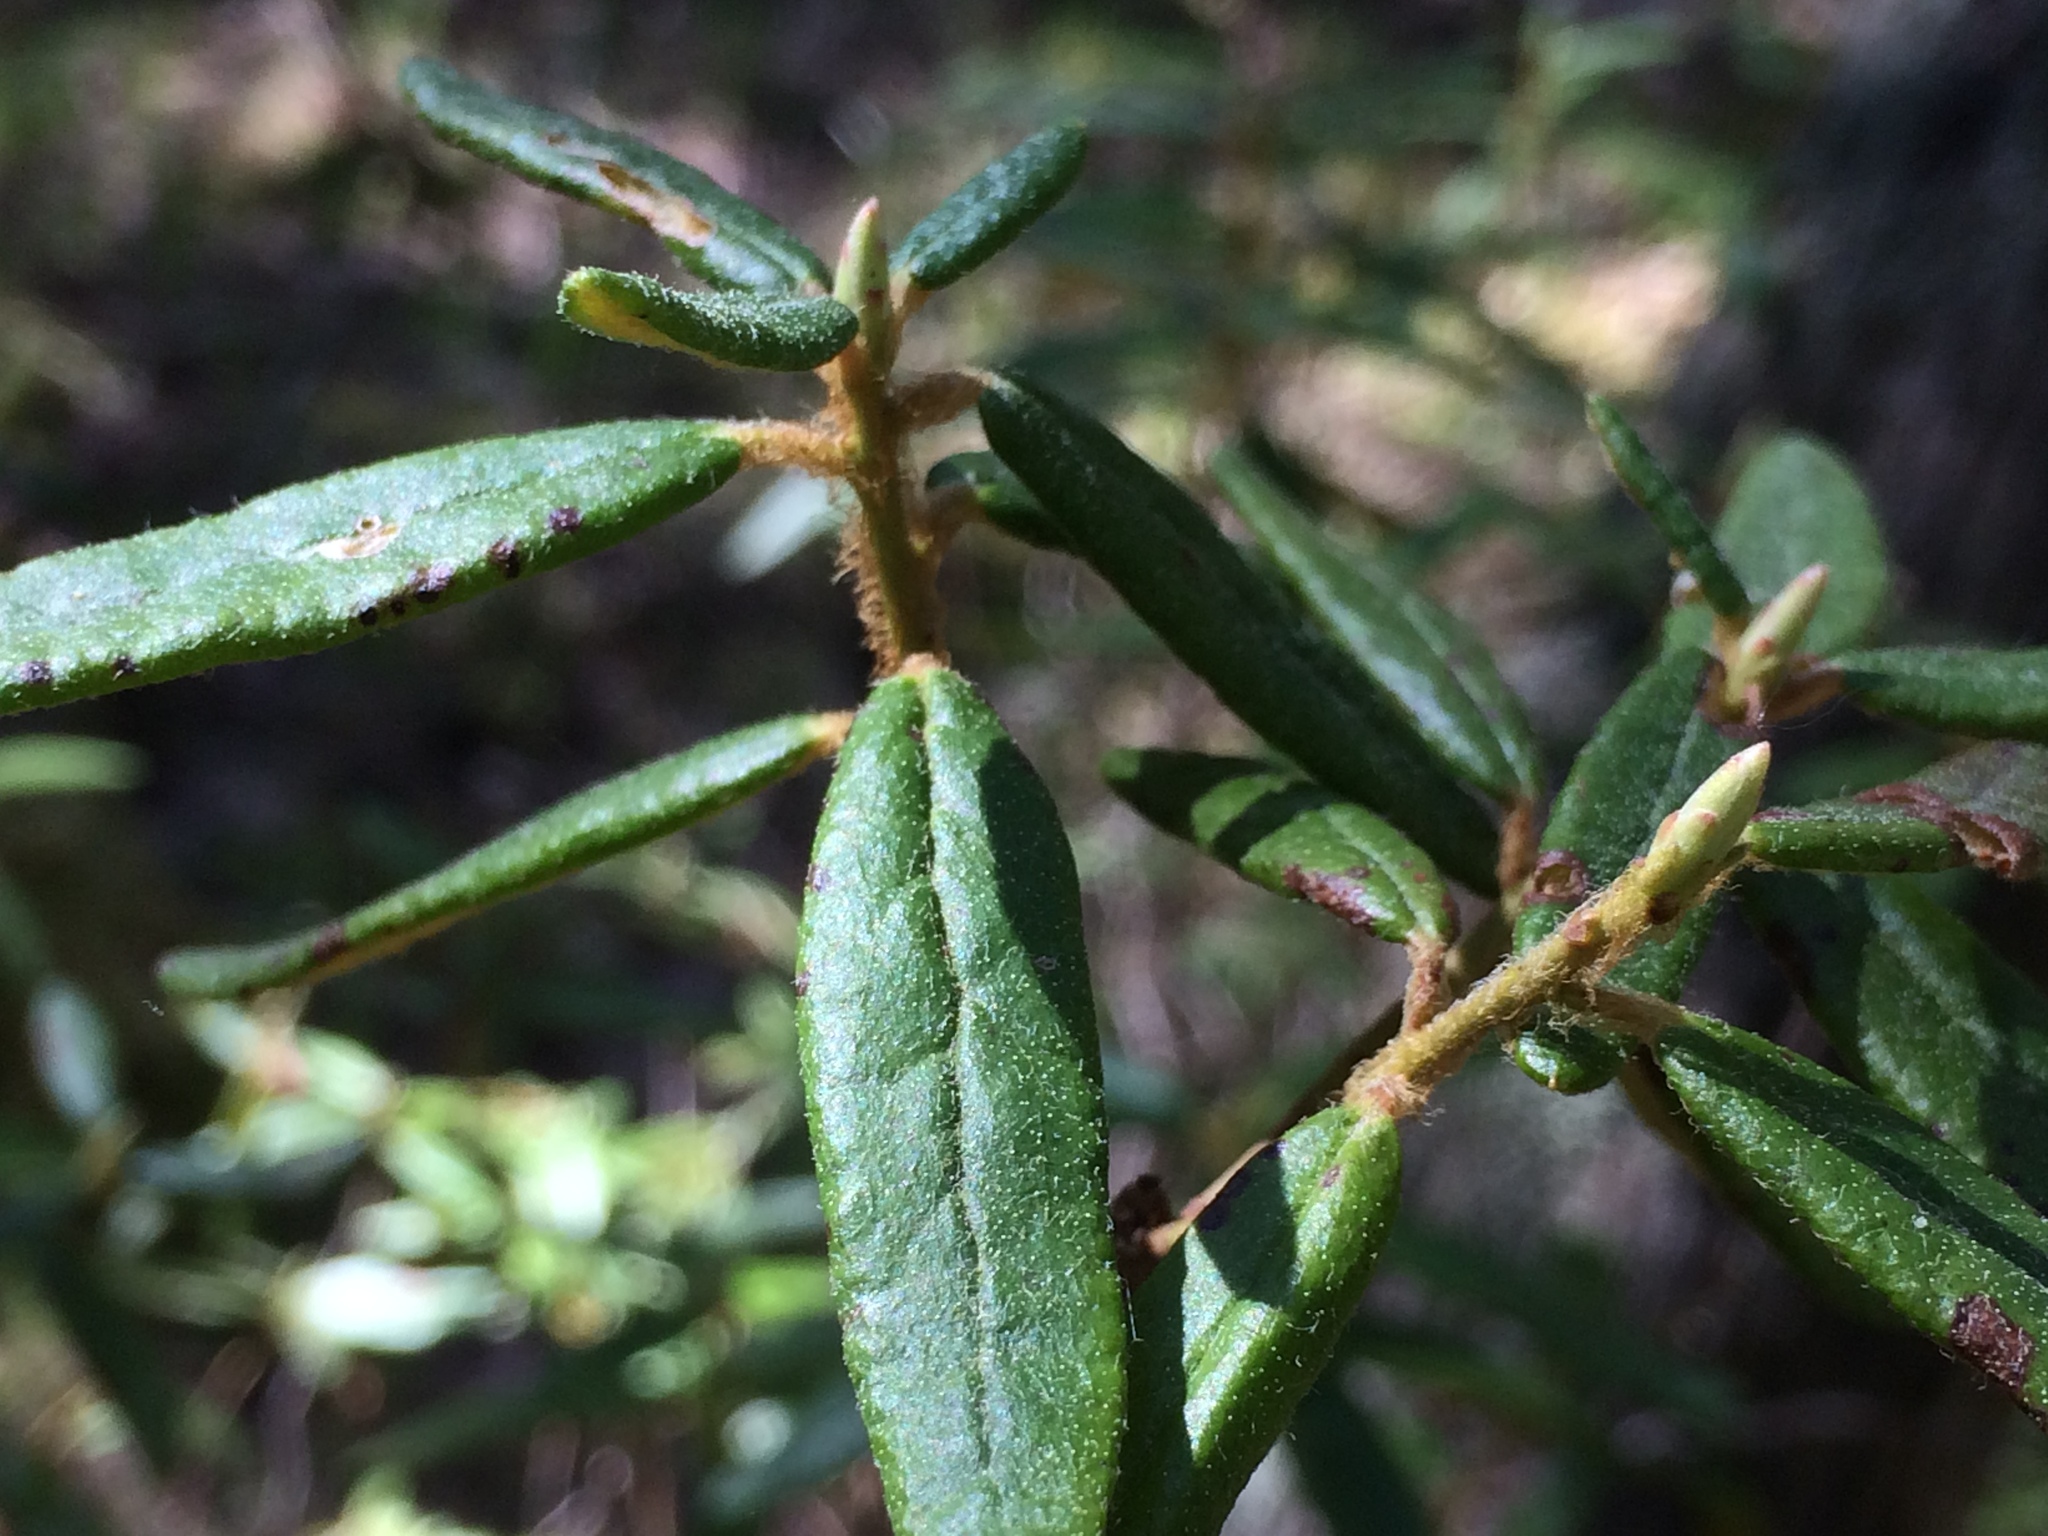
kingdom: Plantae
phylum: Tracheophyta
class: Magnoliopsida
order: Ericales
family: Ericaceae
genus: Rhododendron
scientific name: Rhododendron groenlandicum
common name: Bog labrador tea
